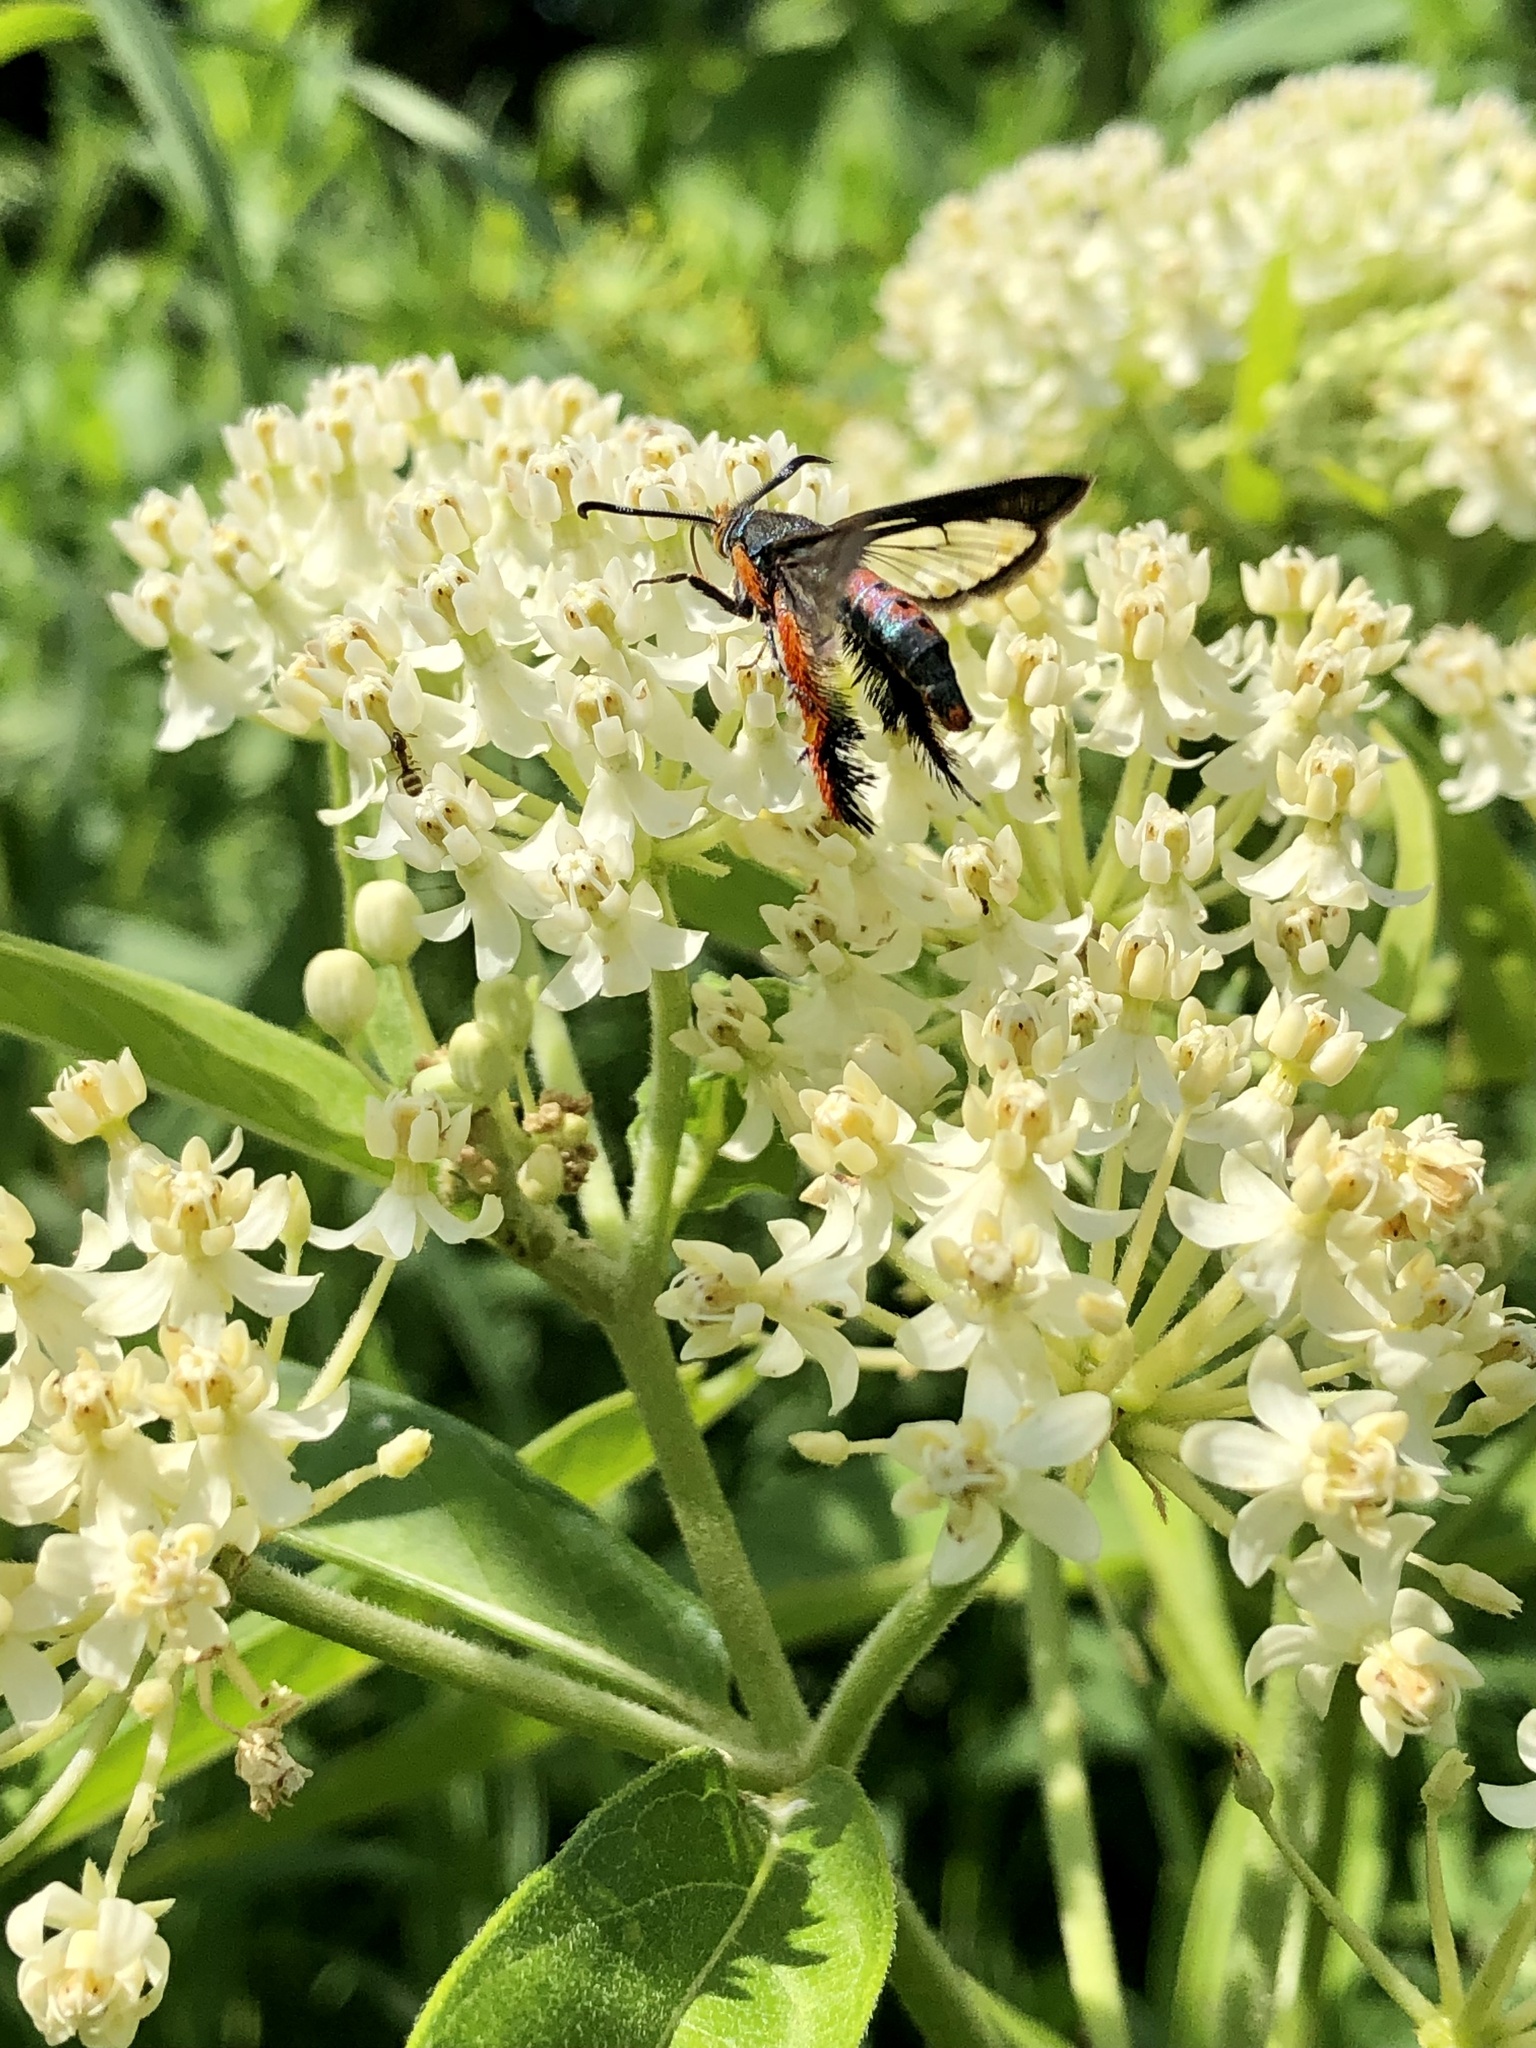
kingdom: Animalia
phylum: Arthropoda
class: Insecta
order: Lepidoptera
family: Sesiidae
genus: Eichlinia
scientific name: Eichlinia cucurbitae
